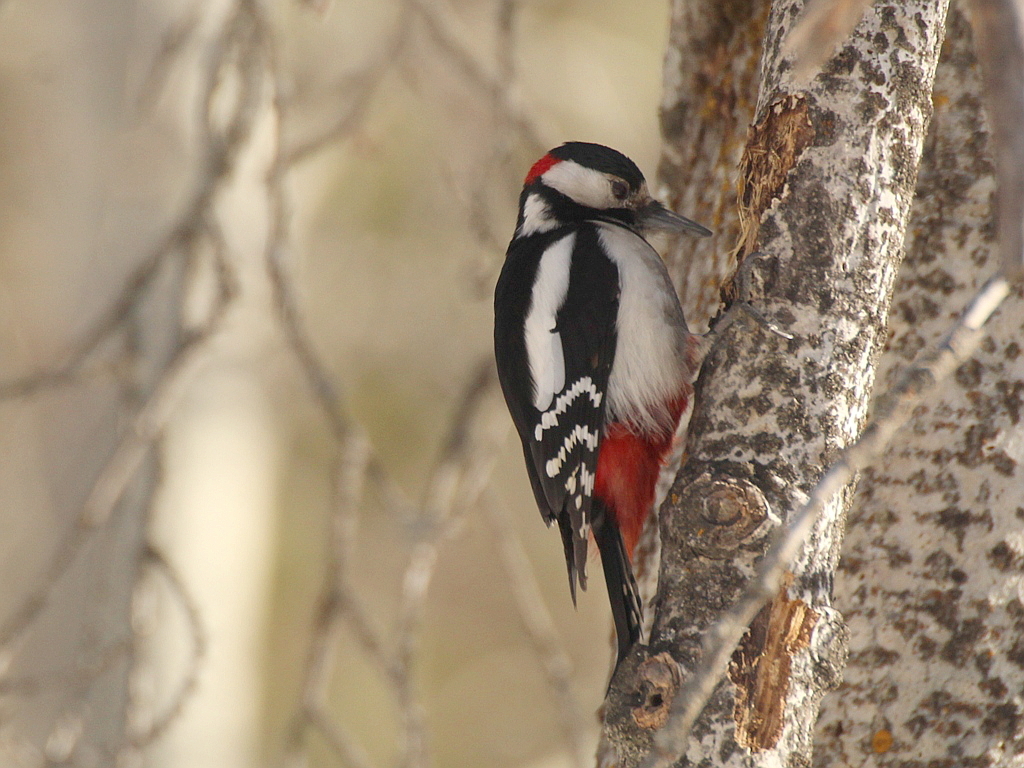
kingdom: Animalia
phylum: Chordata
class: Aves
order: Piciformes
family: Picidae
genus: Dendrocopos
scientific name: Dendrocopos major
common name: Great spotted woodpecker
